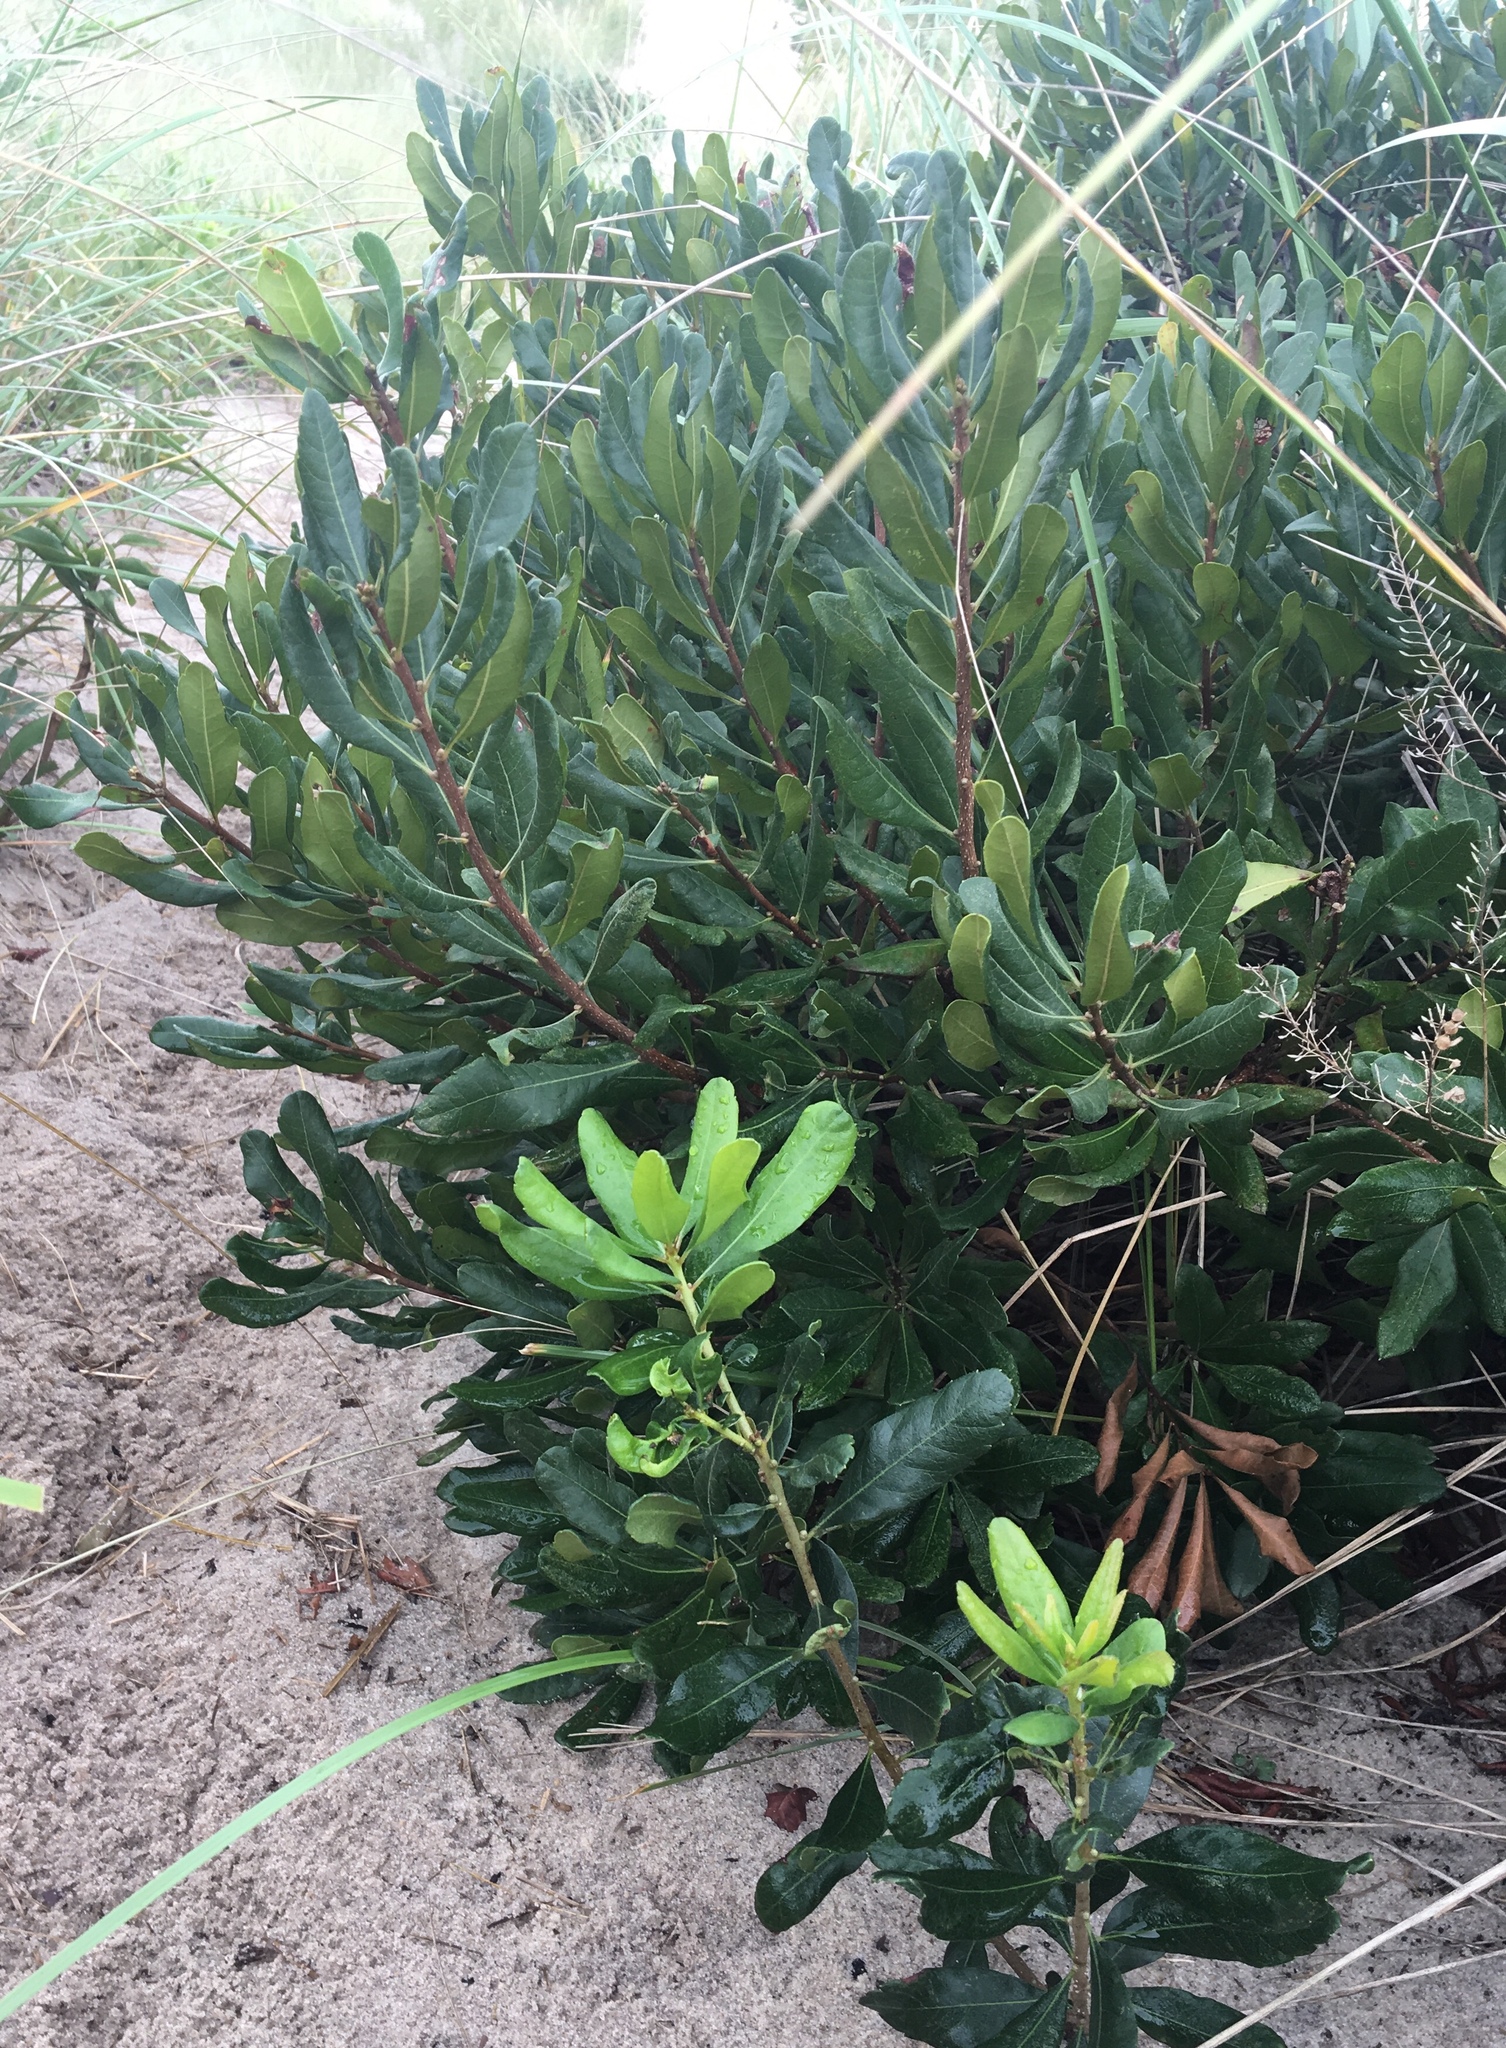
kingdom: Plantae
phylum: Tracheophyta
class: Magnoliopsida
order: Fagales
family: Myricaceae
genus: Morella
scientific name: Morella pensylvanica
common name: Northern bayberry
